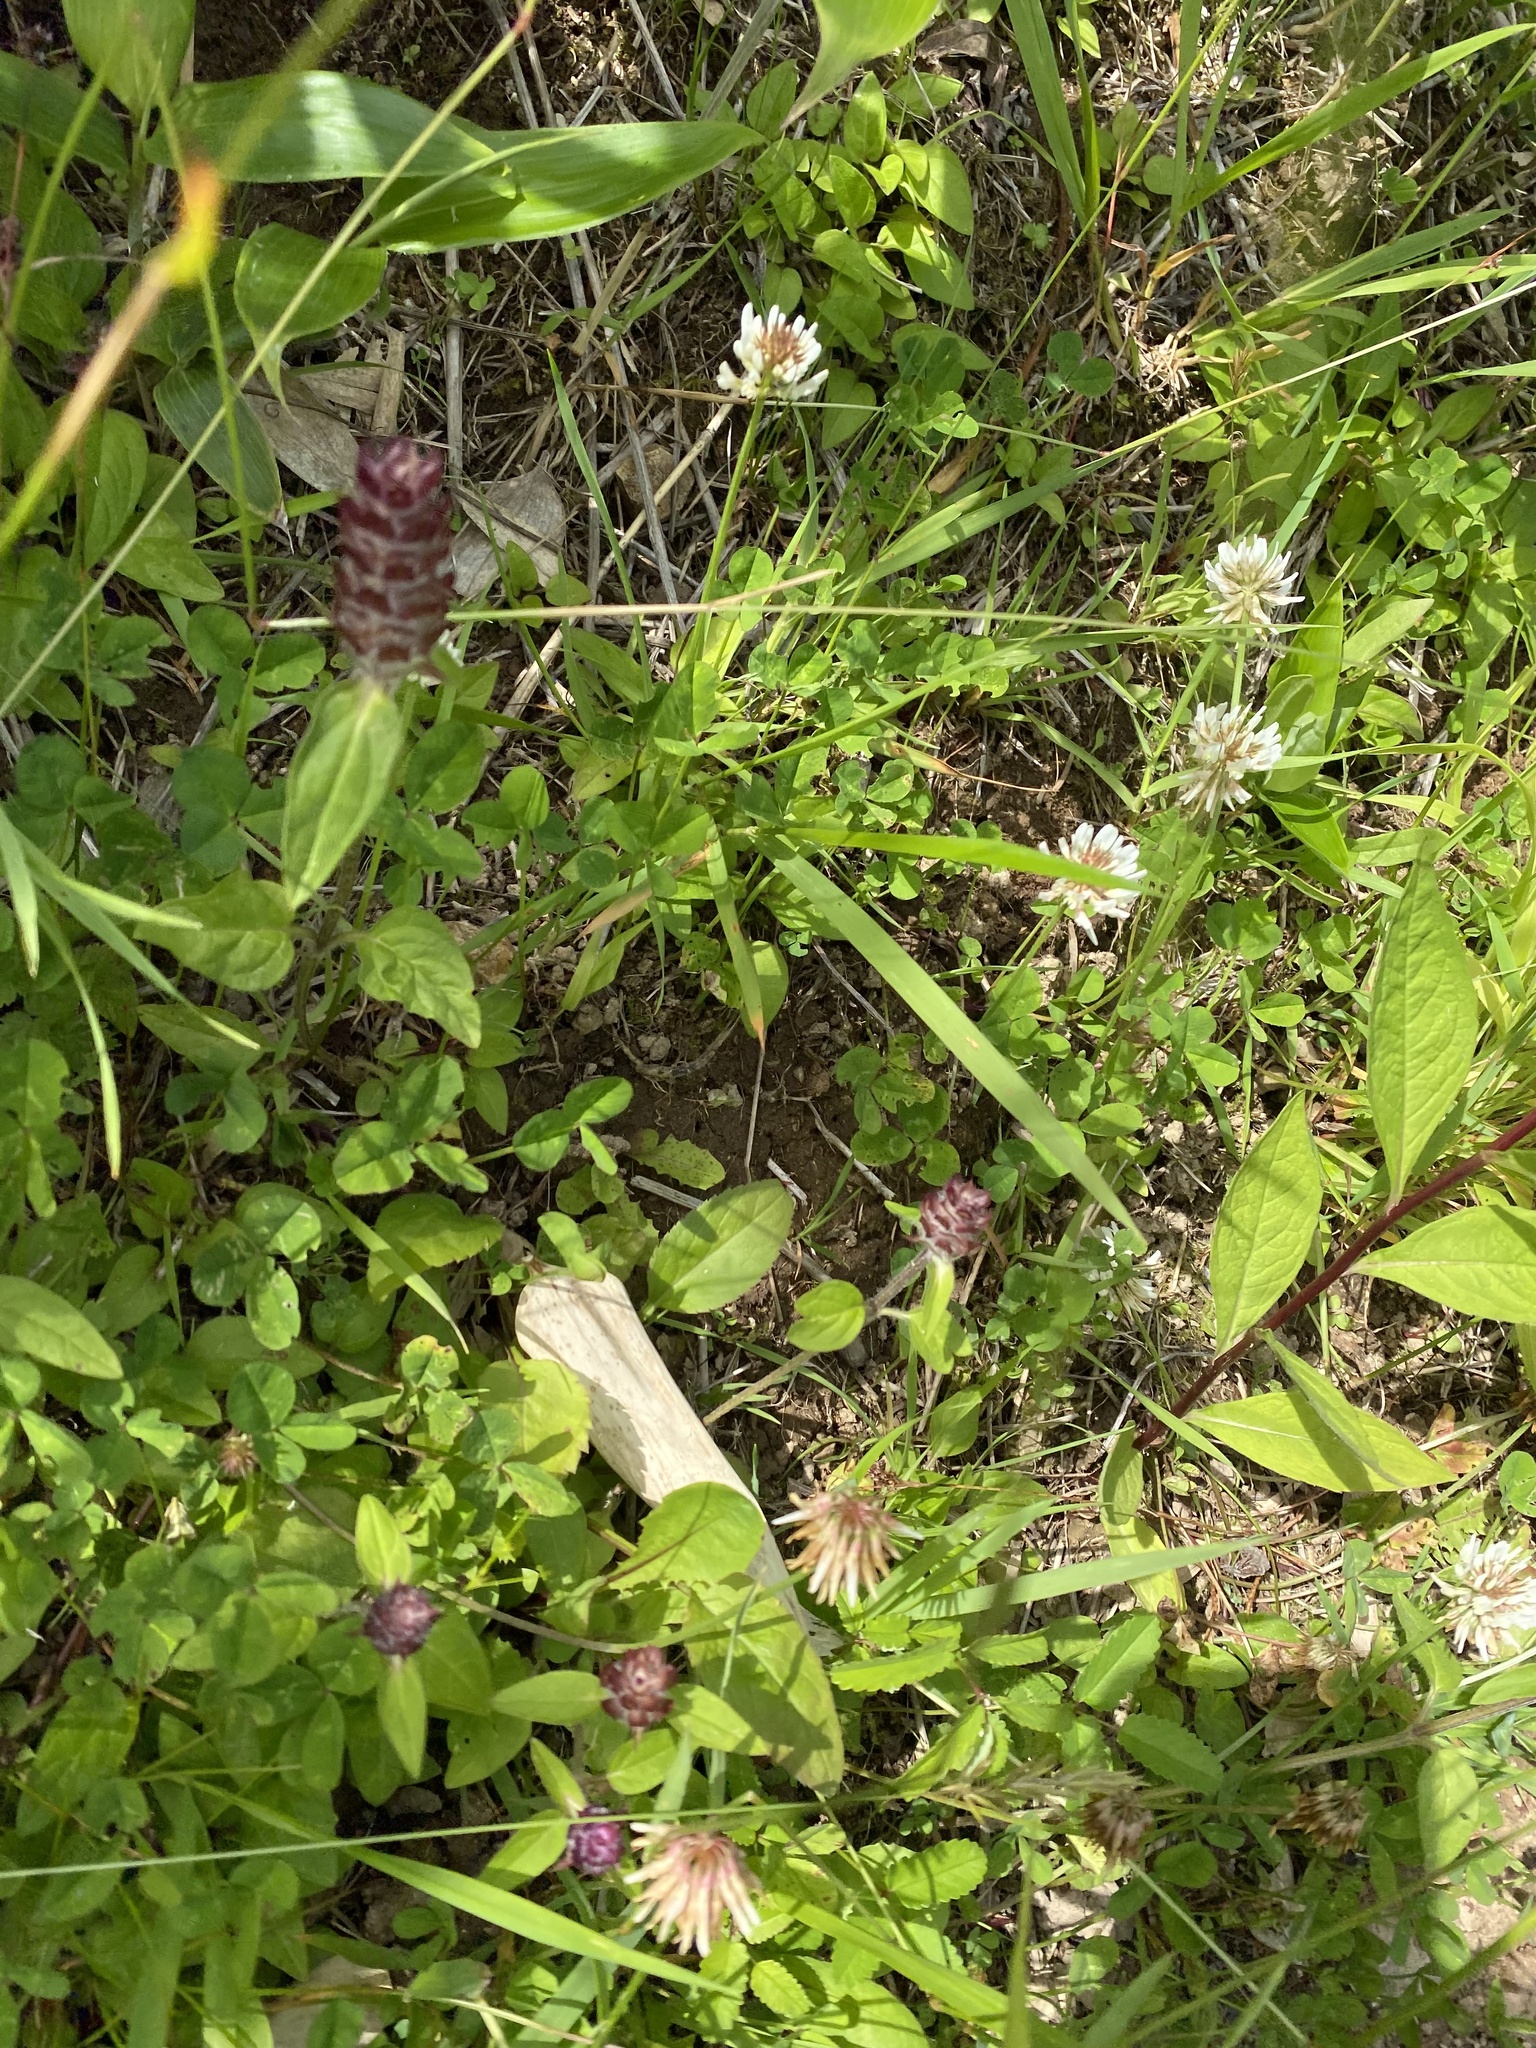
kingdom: Plantae
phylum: Tracheophyta
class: Magnoliopsida
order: Fabales
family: Fabaceae
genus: Trifolium
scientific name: Trifolium repens
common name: White clover
